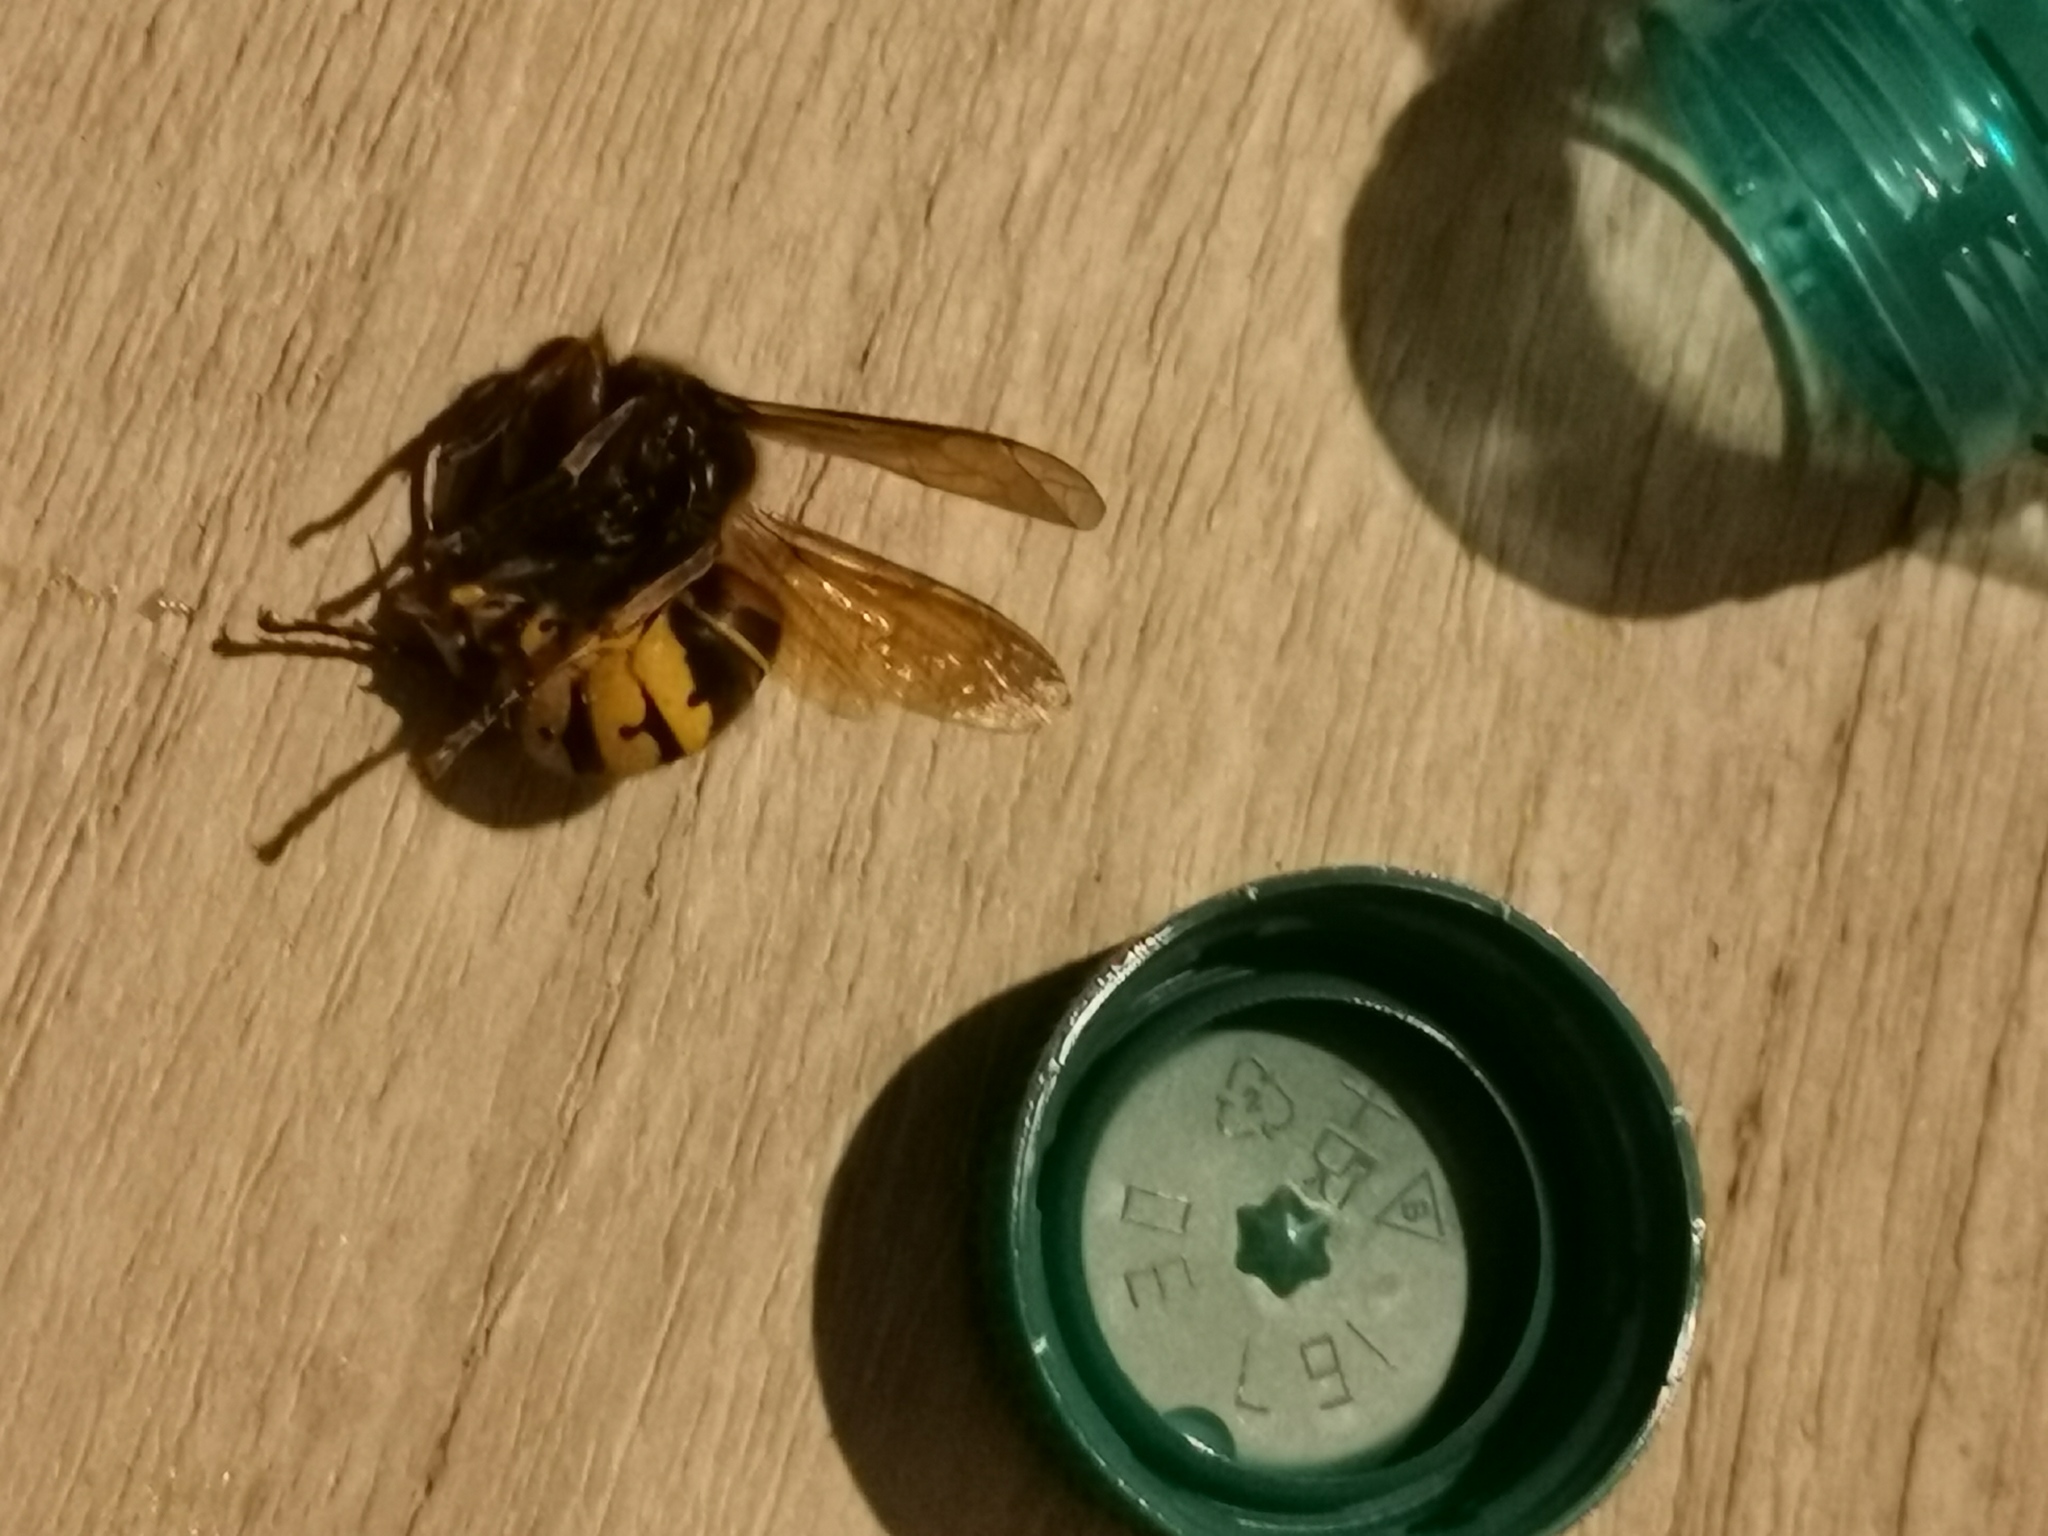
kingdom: Animalia
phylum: Arthropoda
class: Insecta
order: Hymenoptera
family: Vespidae
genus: Vespa
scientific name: Vespa crabro
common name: Hornet
